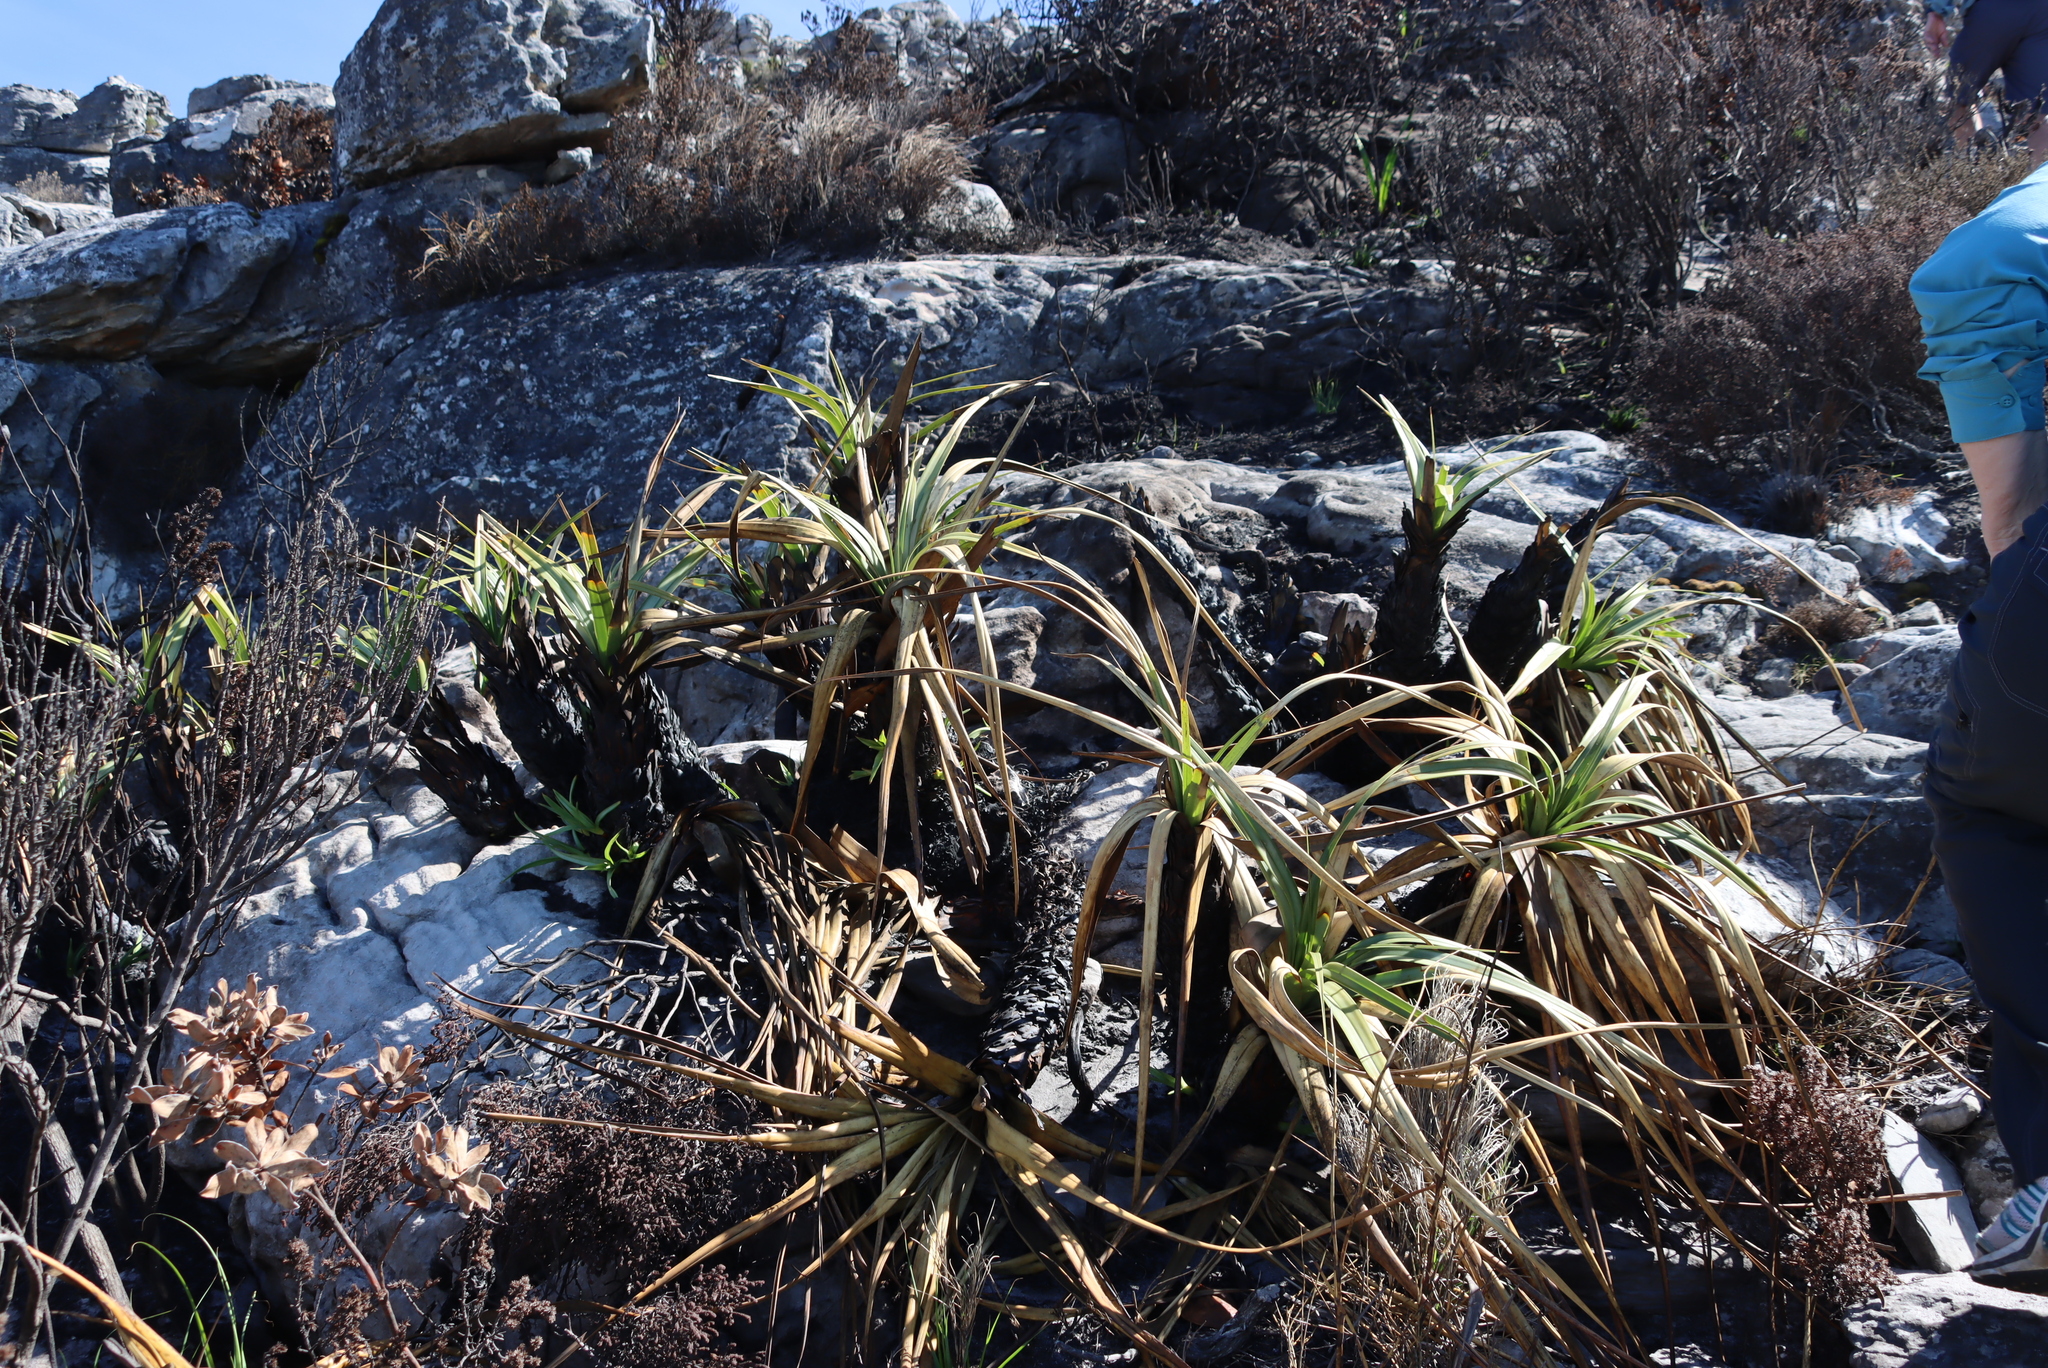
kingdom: Plantae
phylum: Tracheophyta
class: Liliopsida
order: Poales
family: Cyperaceae
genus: Tetraria
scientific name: Tetraria thermalis
